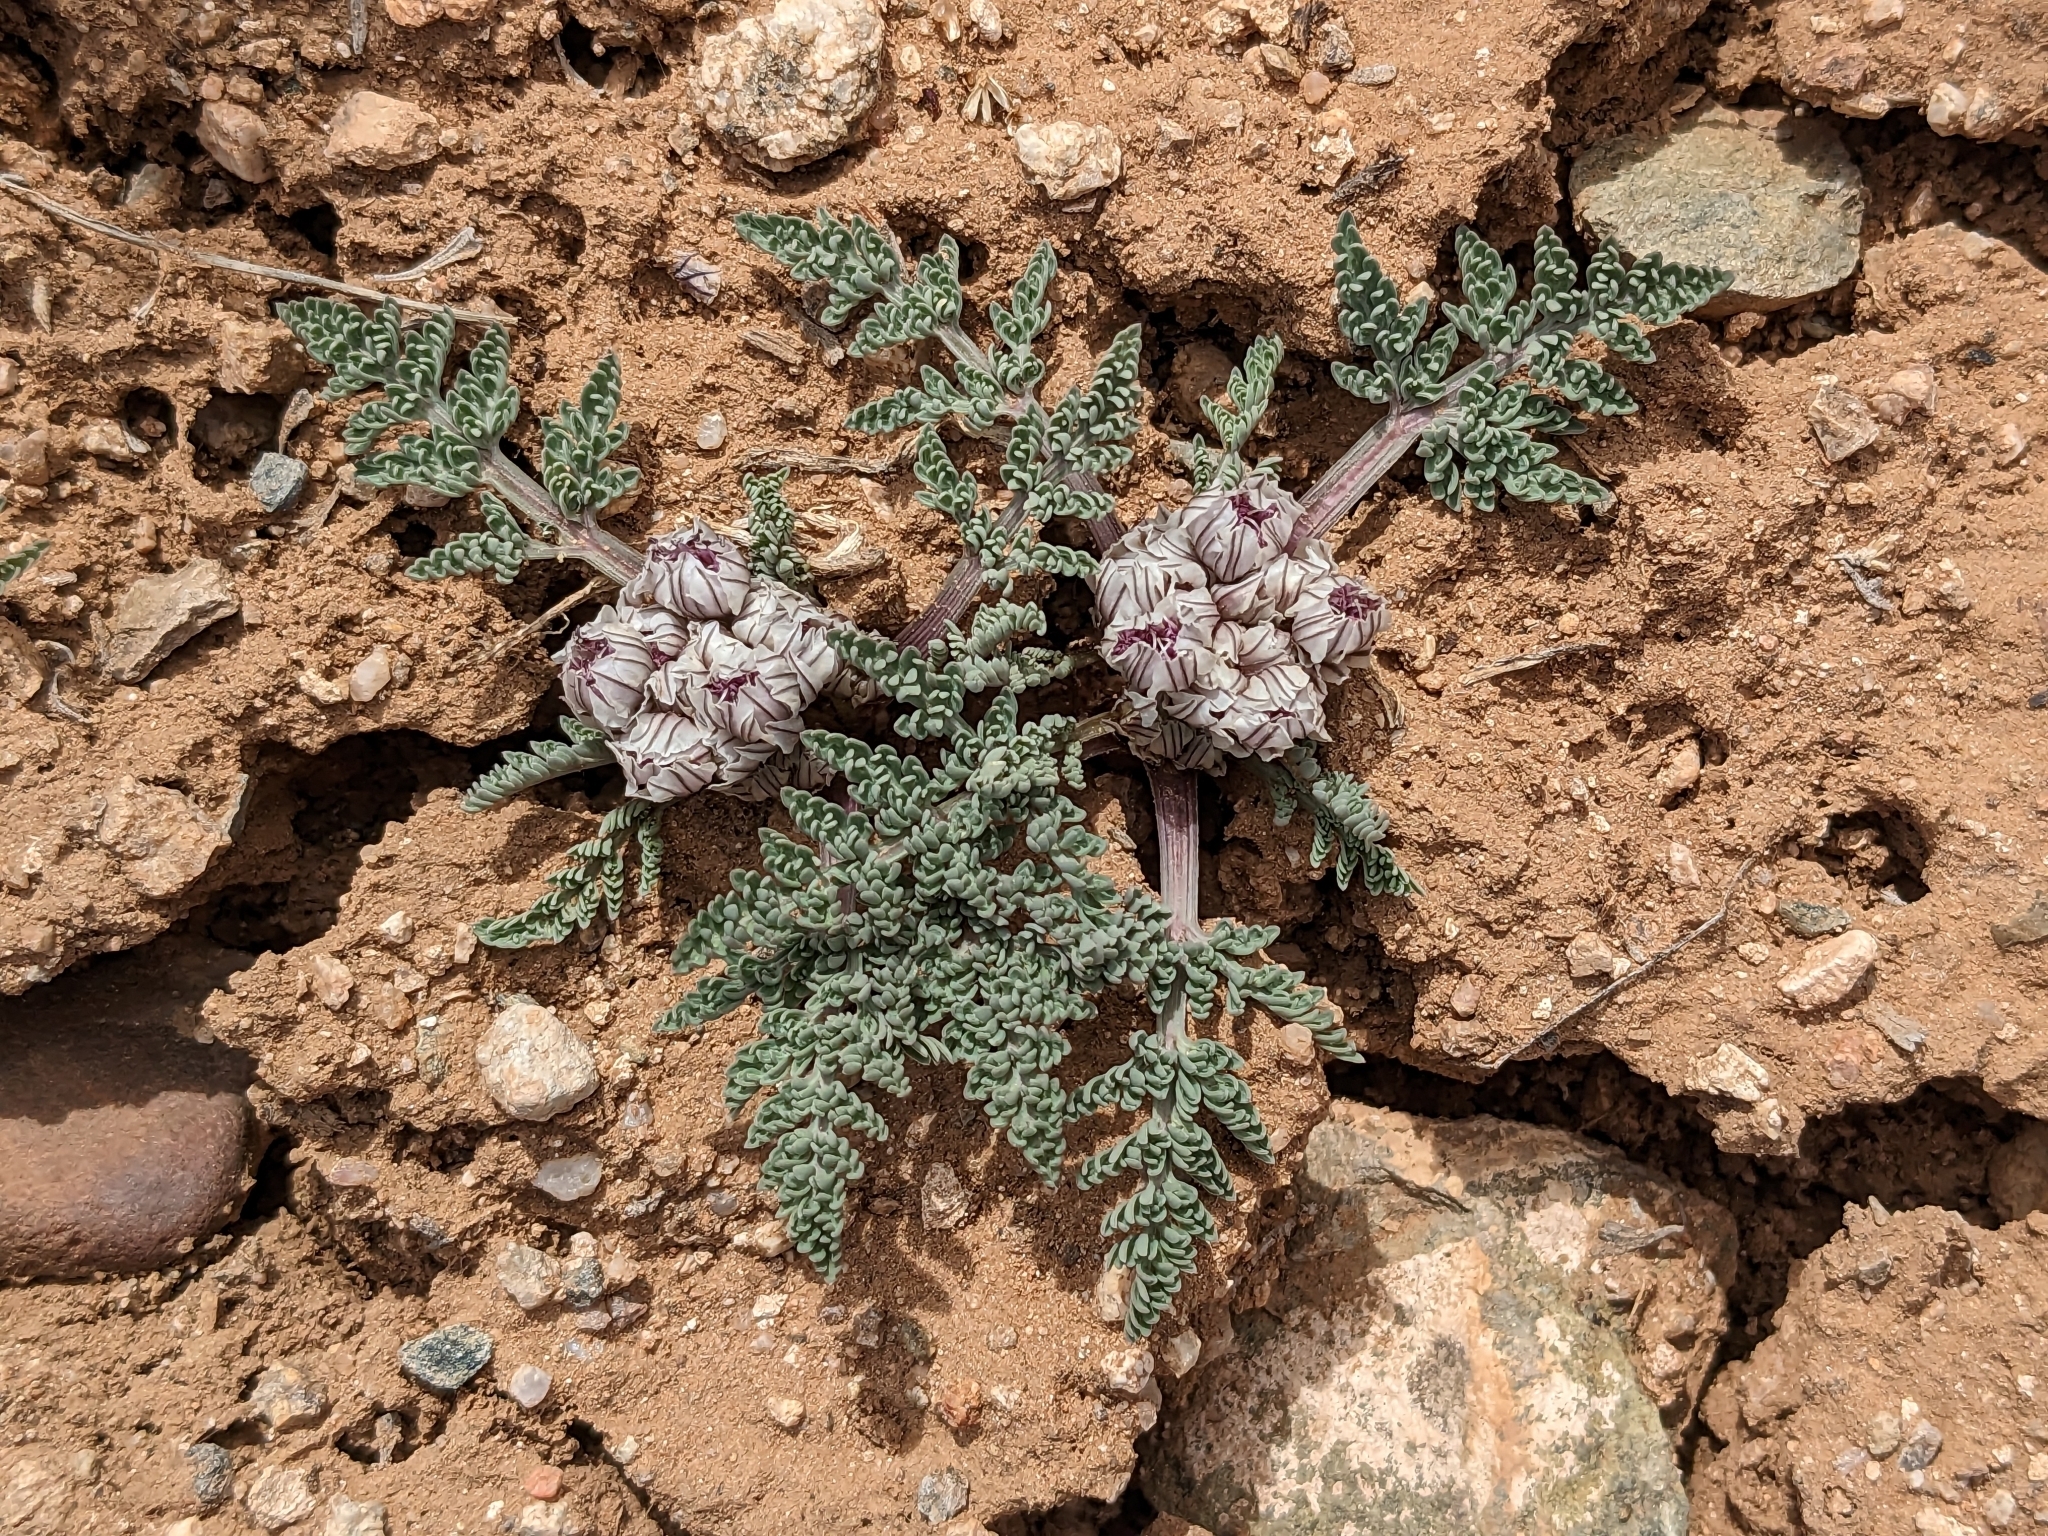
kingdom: Plantae
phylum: Tracheophyta
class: Magnoliopsida
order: Apiales
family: Apiaceae
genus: Vesper
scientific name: Vesper constancei
